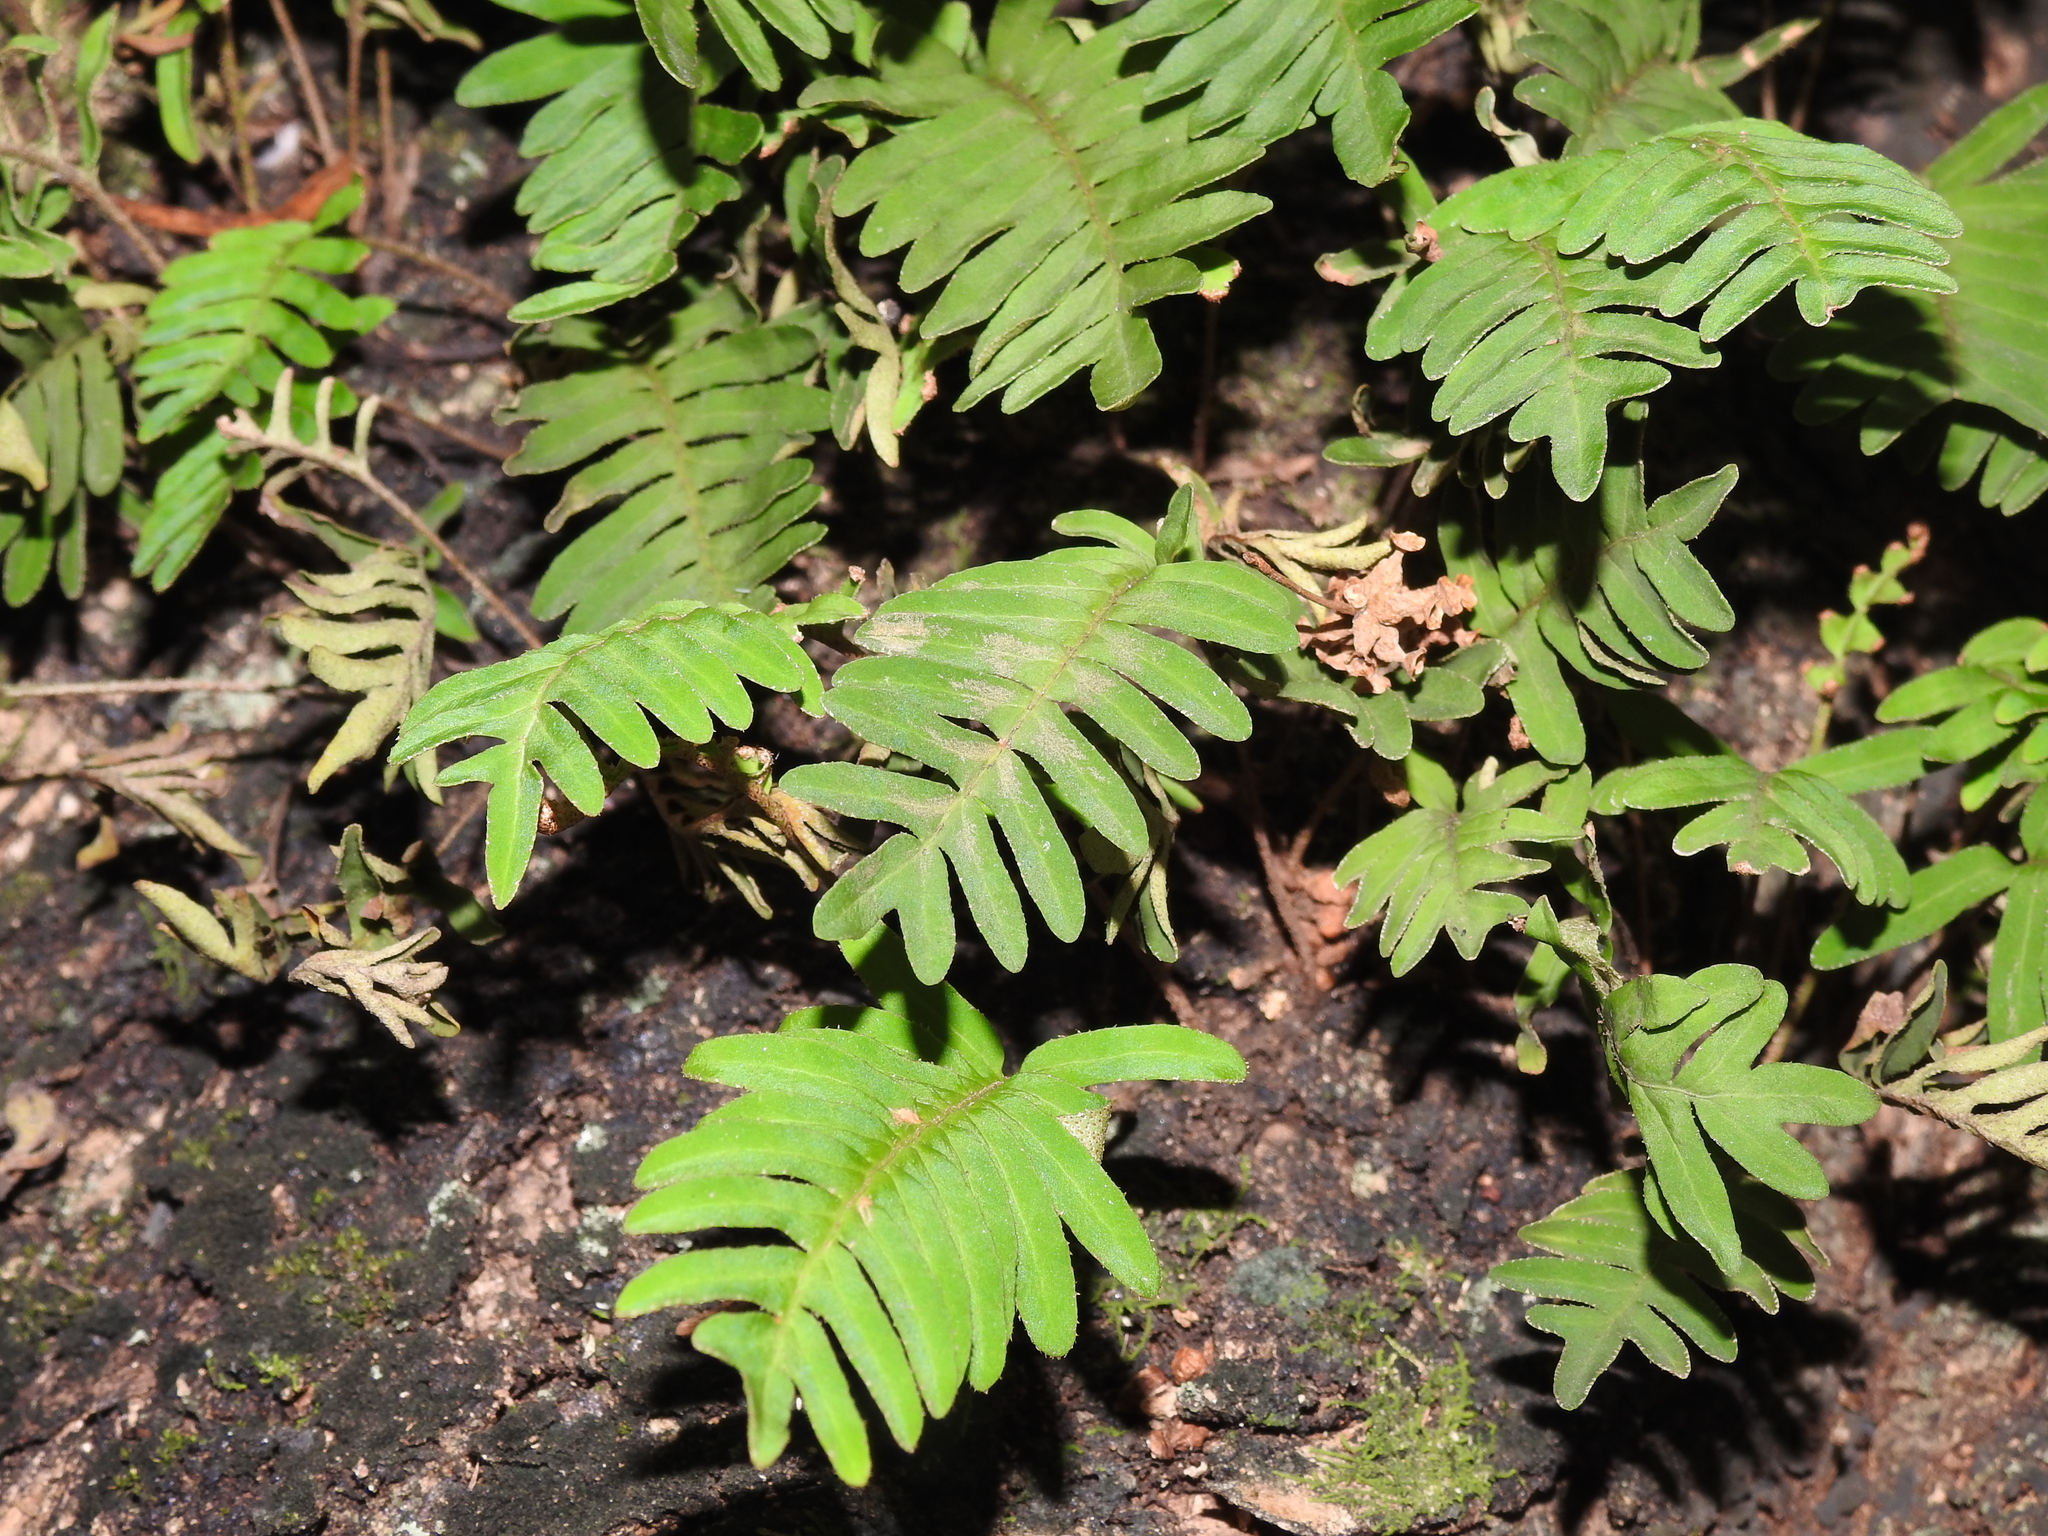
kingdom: Plantae
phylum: Tracheophyta
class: Polypodiopsida
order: Polypodiales
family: Polypodiaceae
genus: Pleopeltis
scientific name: Pleopeltis michauxiana
